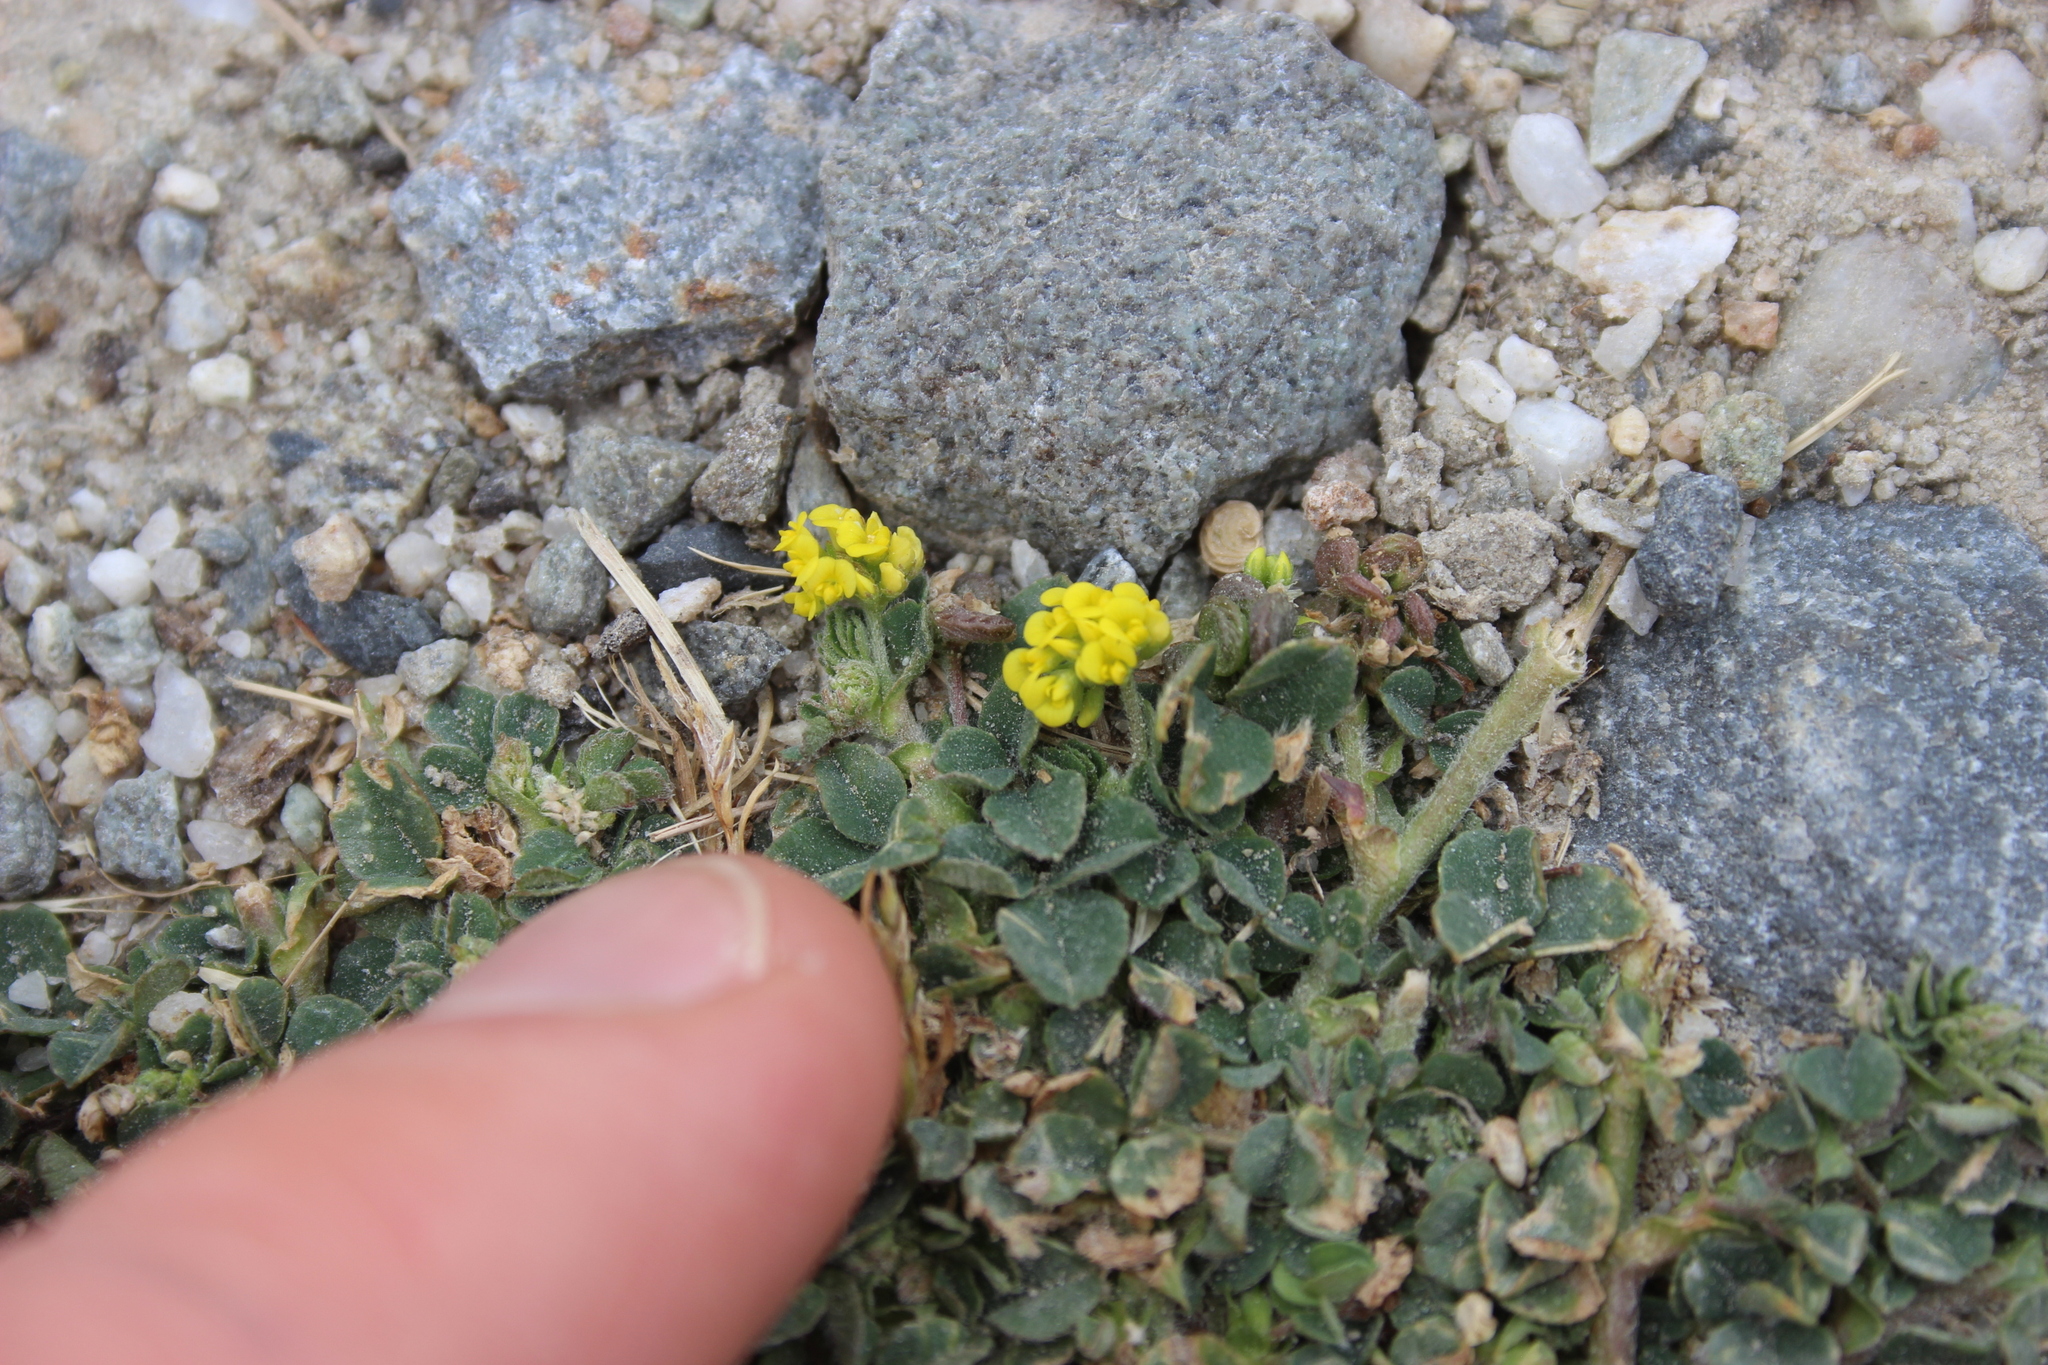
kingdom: Plantae
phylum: Tracheophyta
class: Magnoliopsida
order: Fabales
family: Fabaceae
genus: Medicago
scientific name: Medicago lupulina
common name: Black medick
